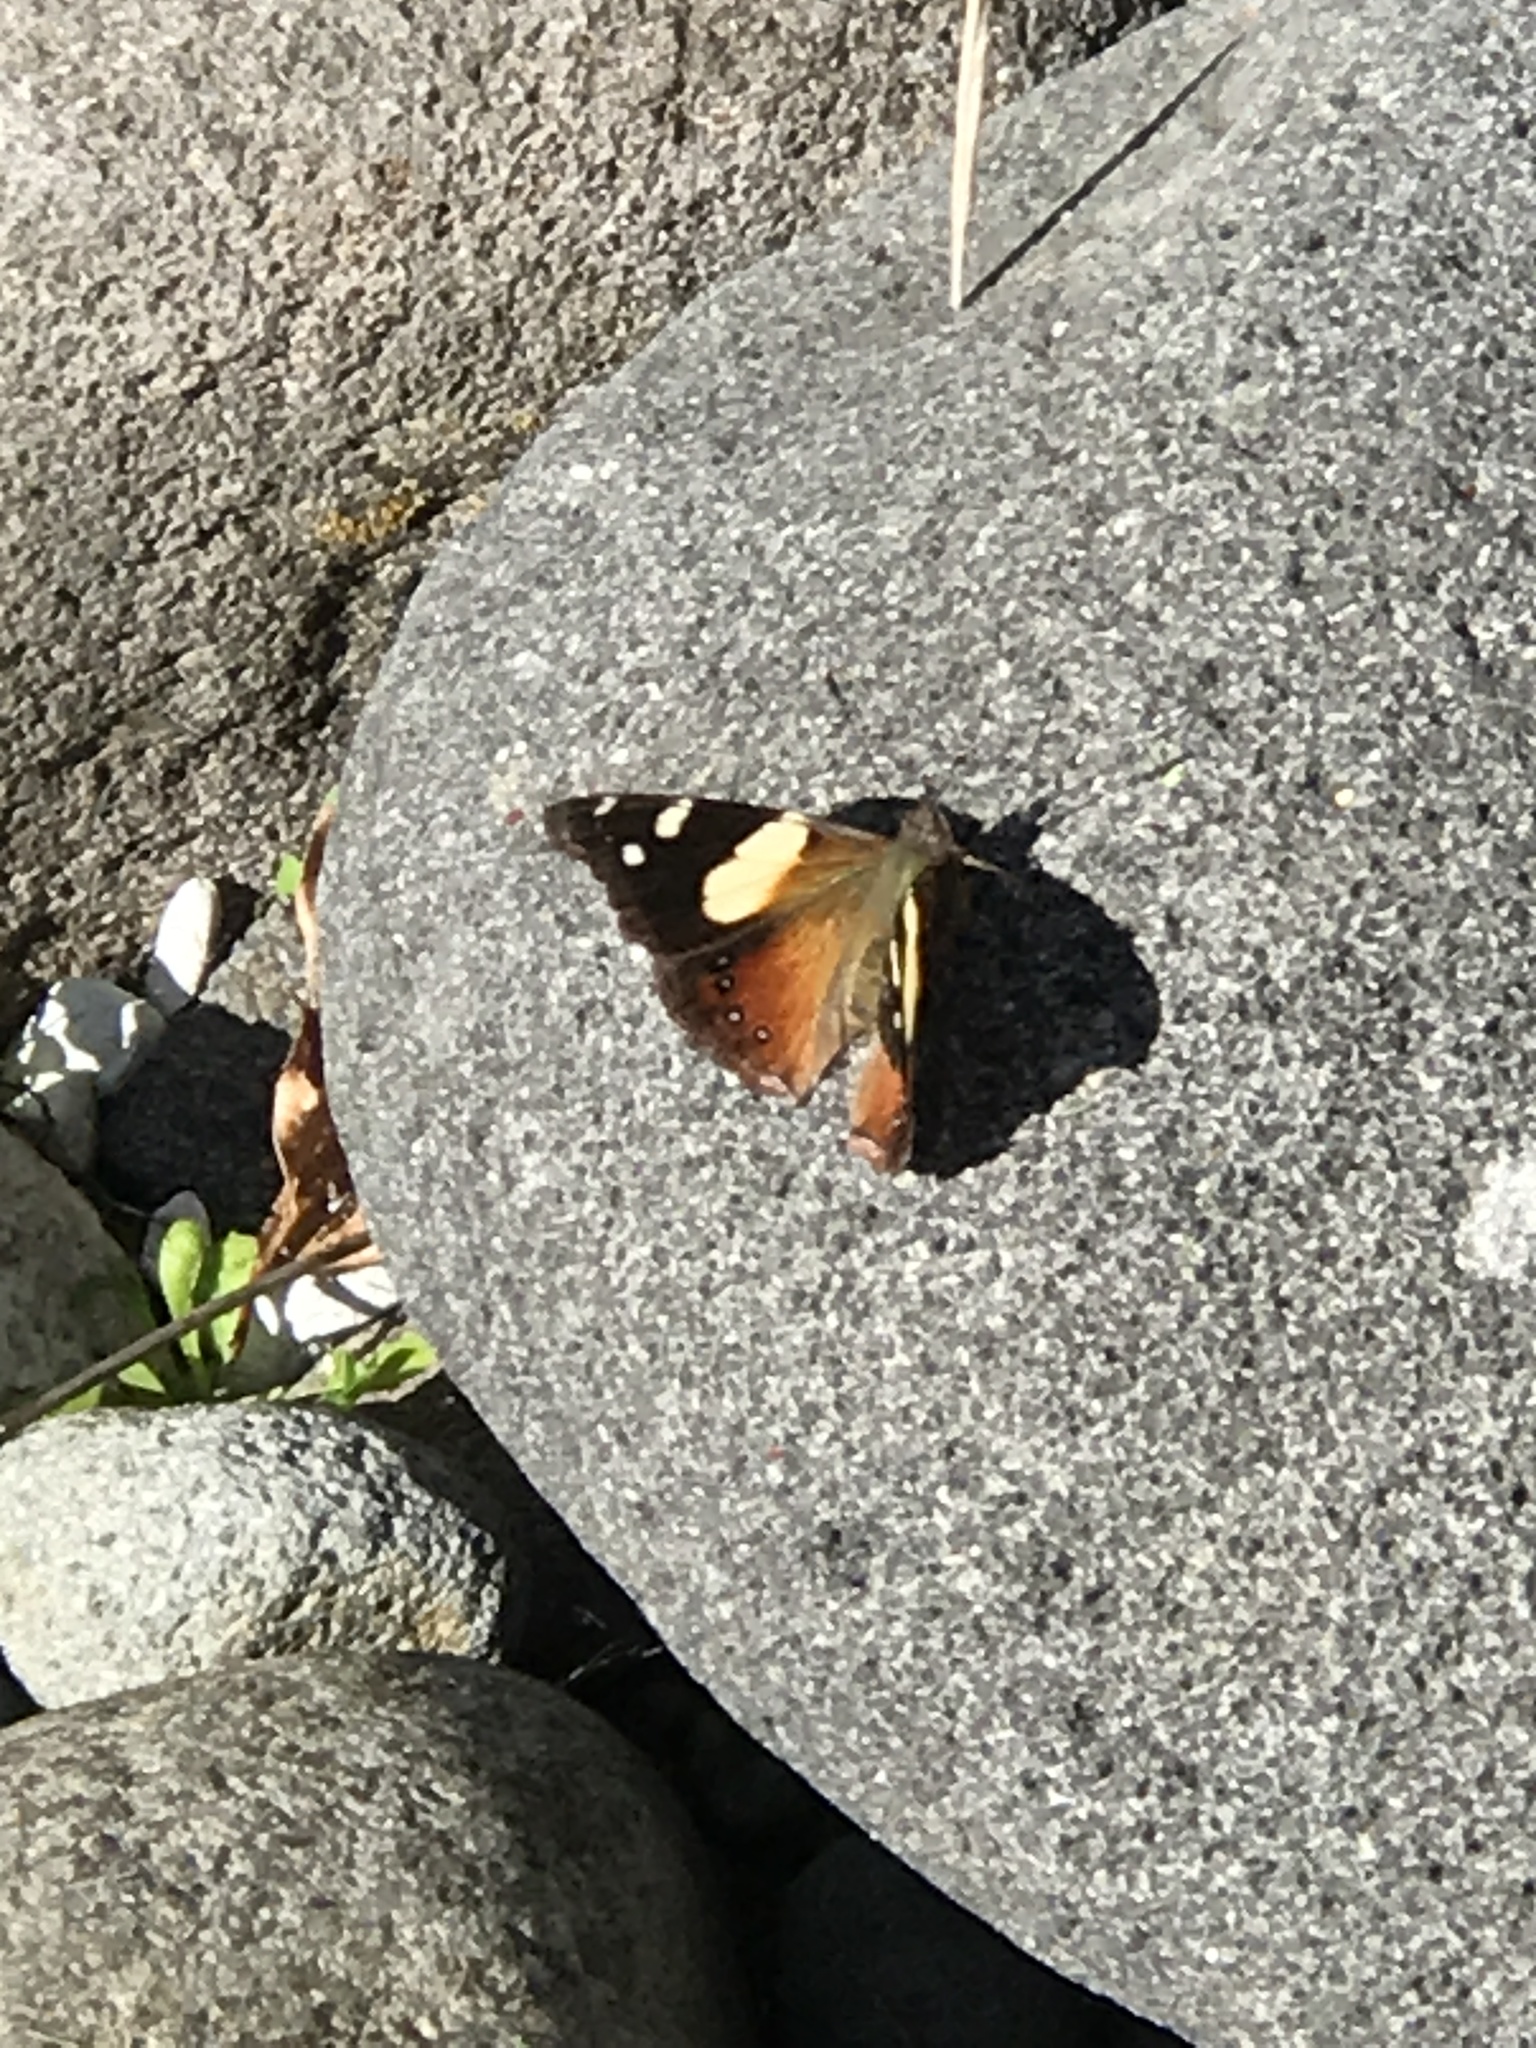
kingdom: Animalia
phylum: Arthropoda
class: Insecta
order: Lepidoptera
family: Nymphalidae
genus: Vanessa
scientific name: Vanessa itea
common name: Yellow admiral
